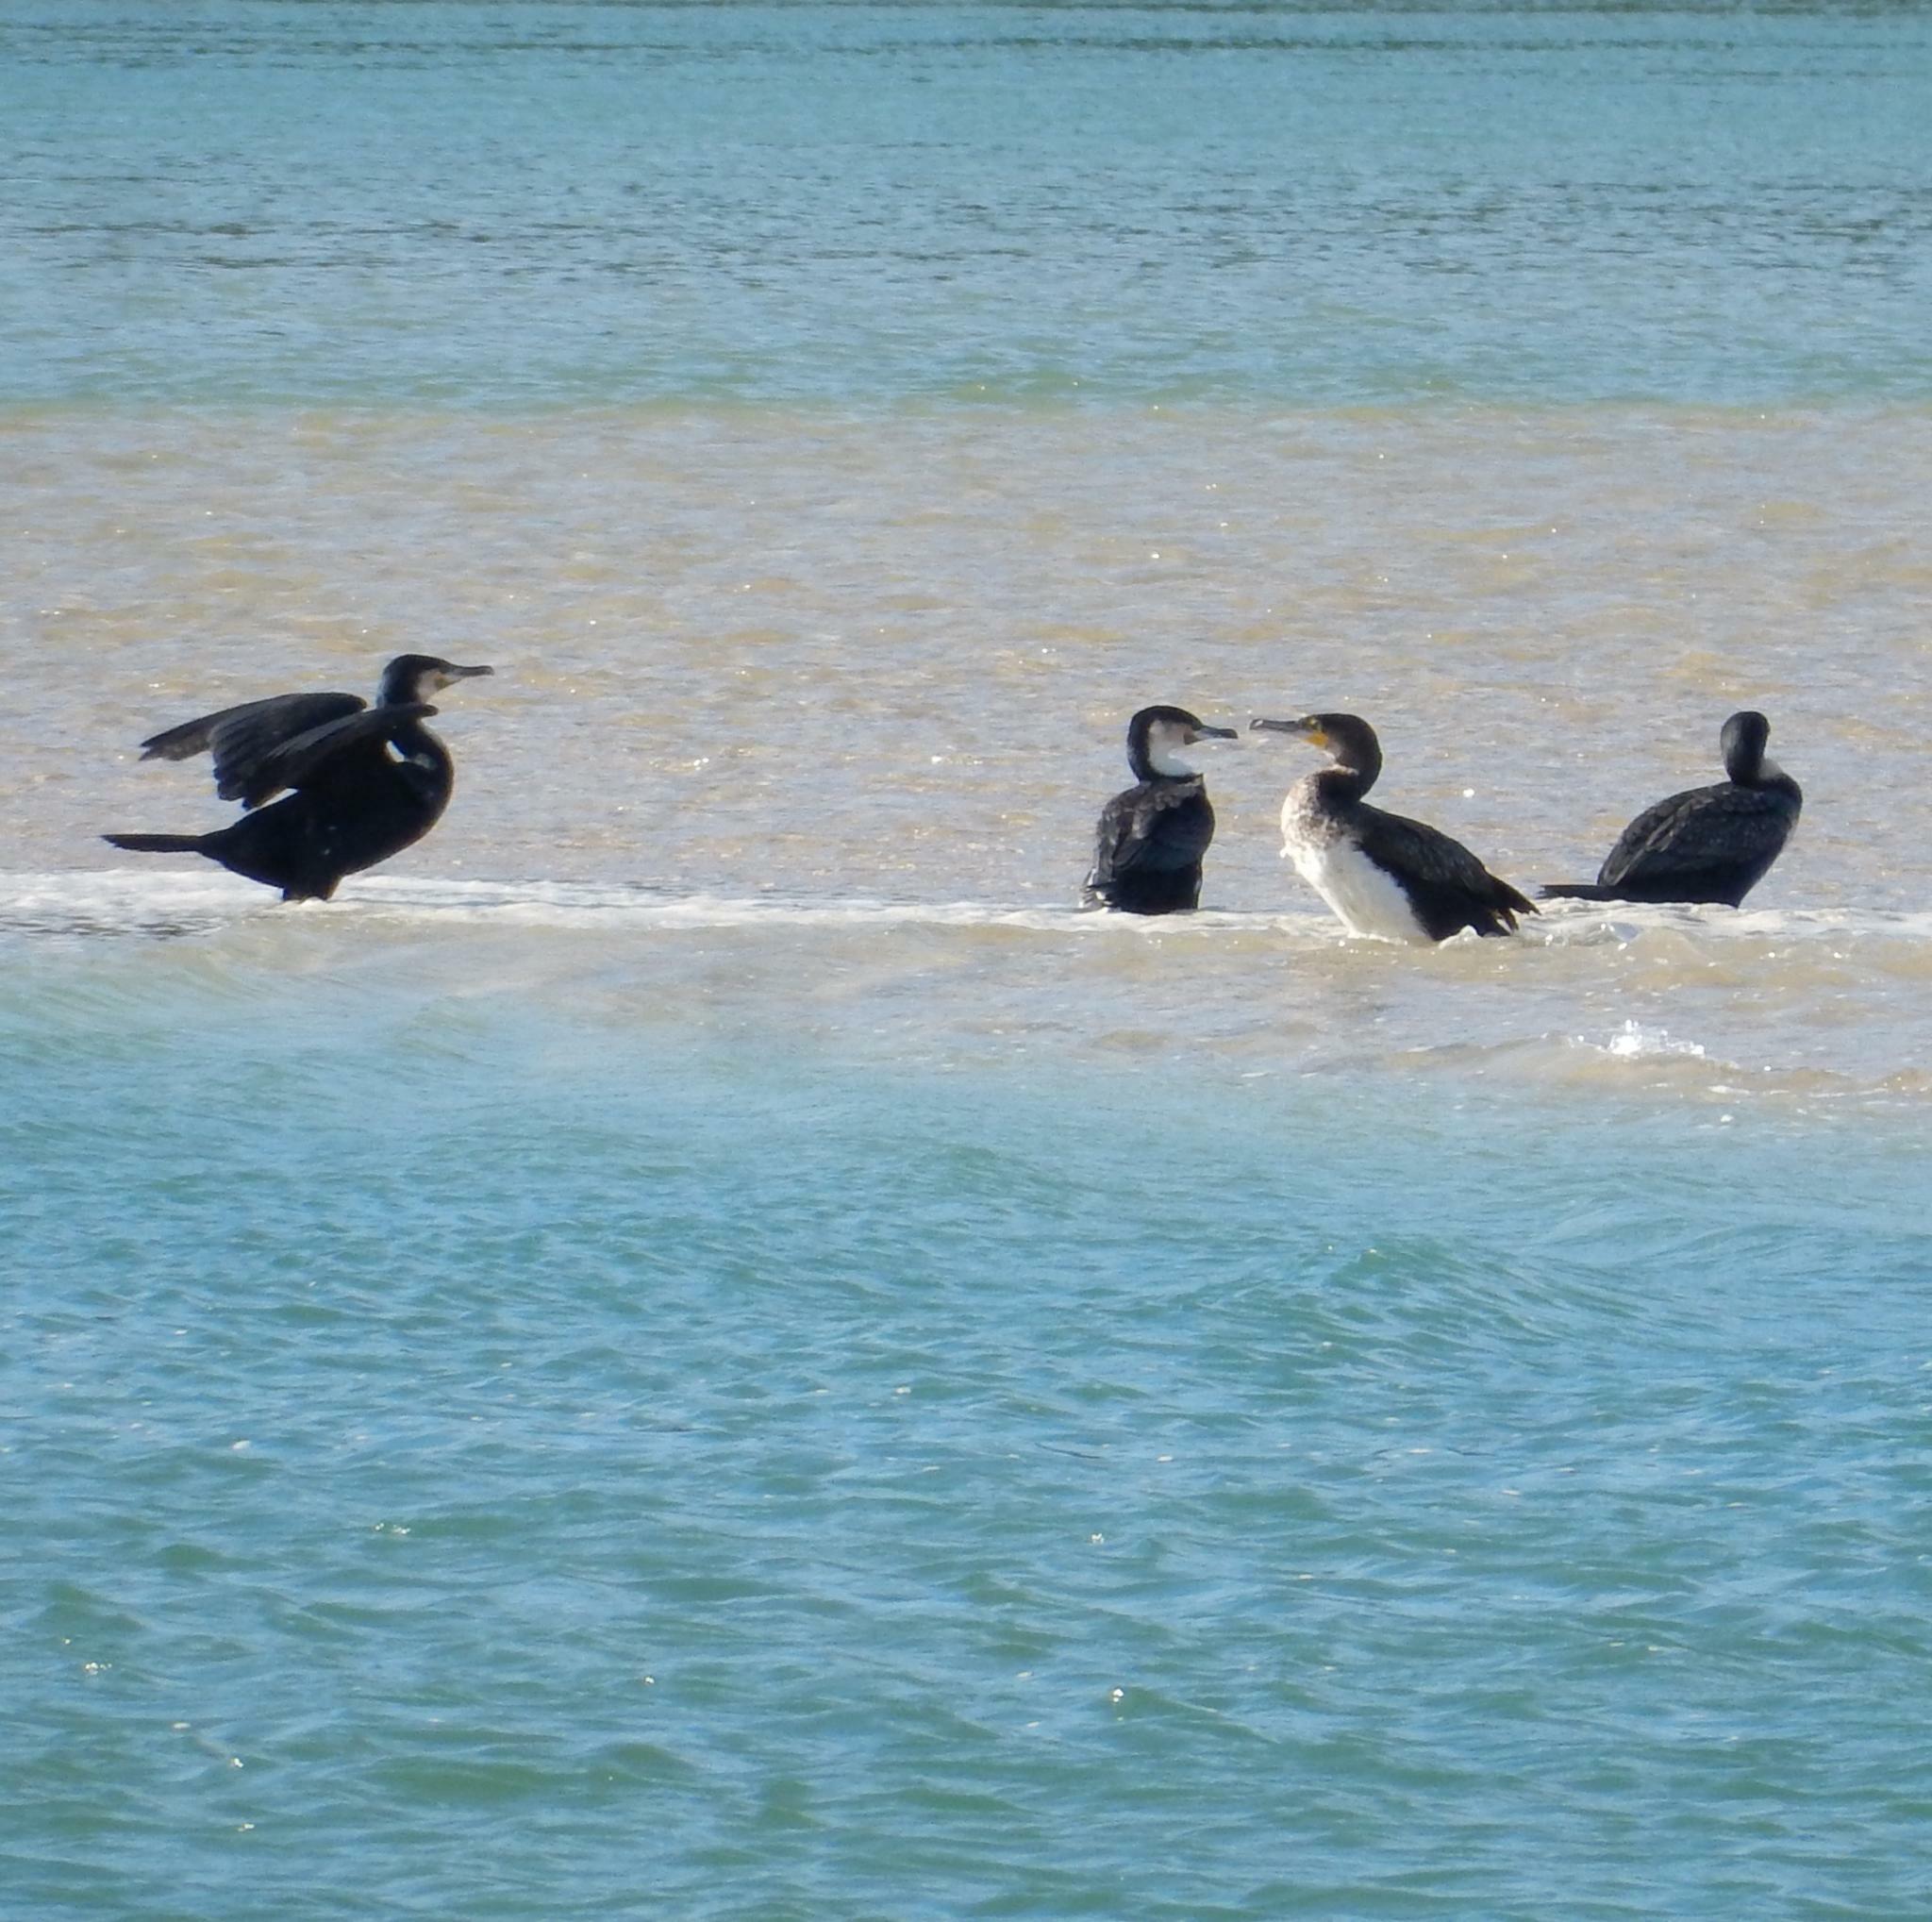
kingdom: Animalia
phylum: Chordata
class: Aves
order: Suliformes
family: Phalacrocoracidae
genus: Phalacrocorax
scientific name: Phalacrocorax carbo
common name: Great cormorant
